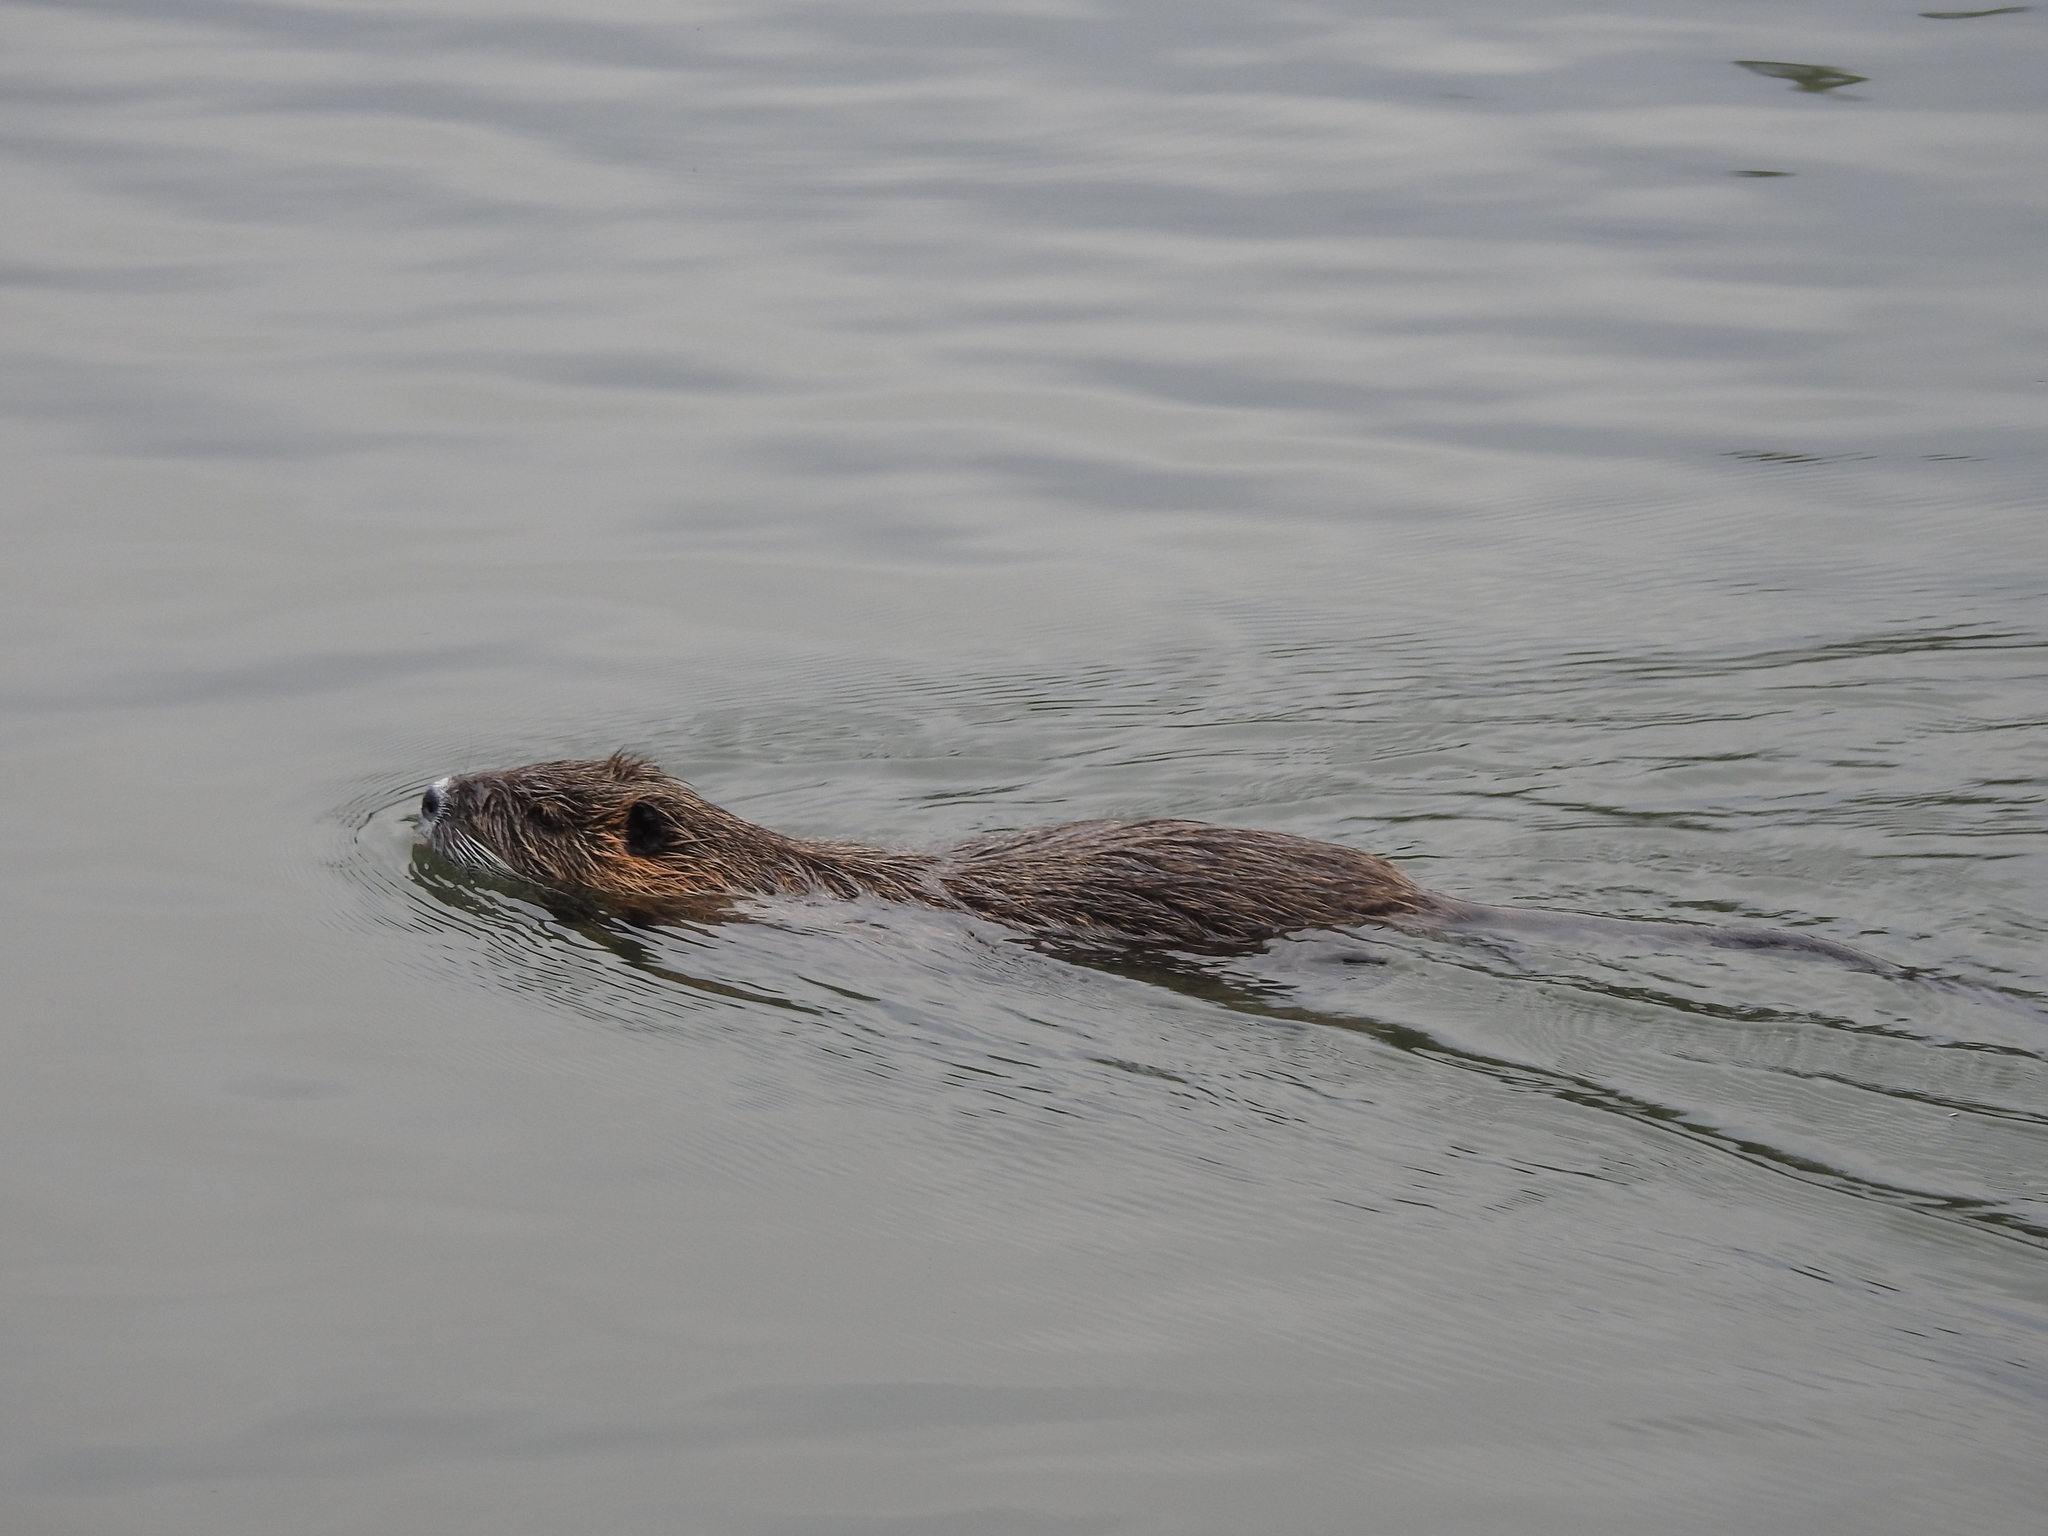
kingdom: Animalia
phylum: Chordata
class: Mammalia
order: Rodentia
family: Myocastoridae
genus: Myocastor
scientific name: Myocastor coypus
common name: Coypu
